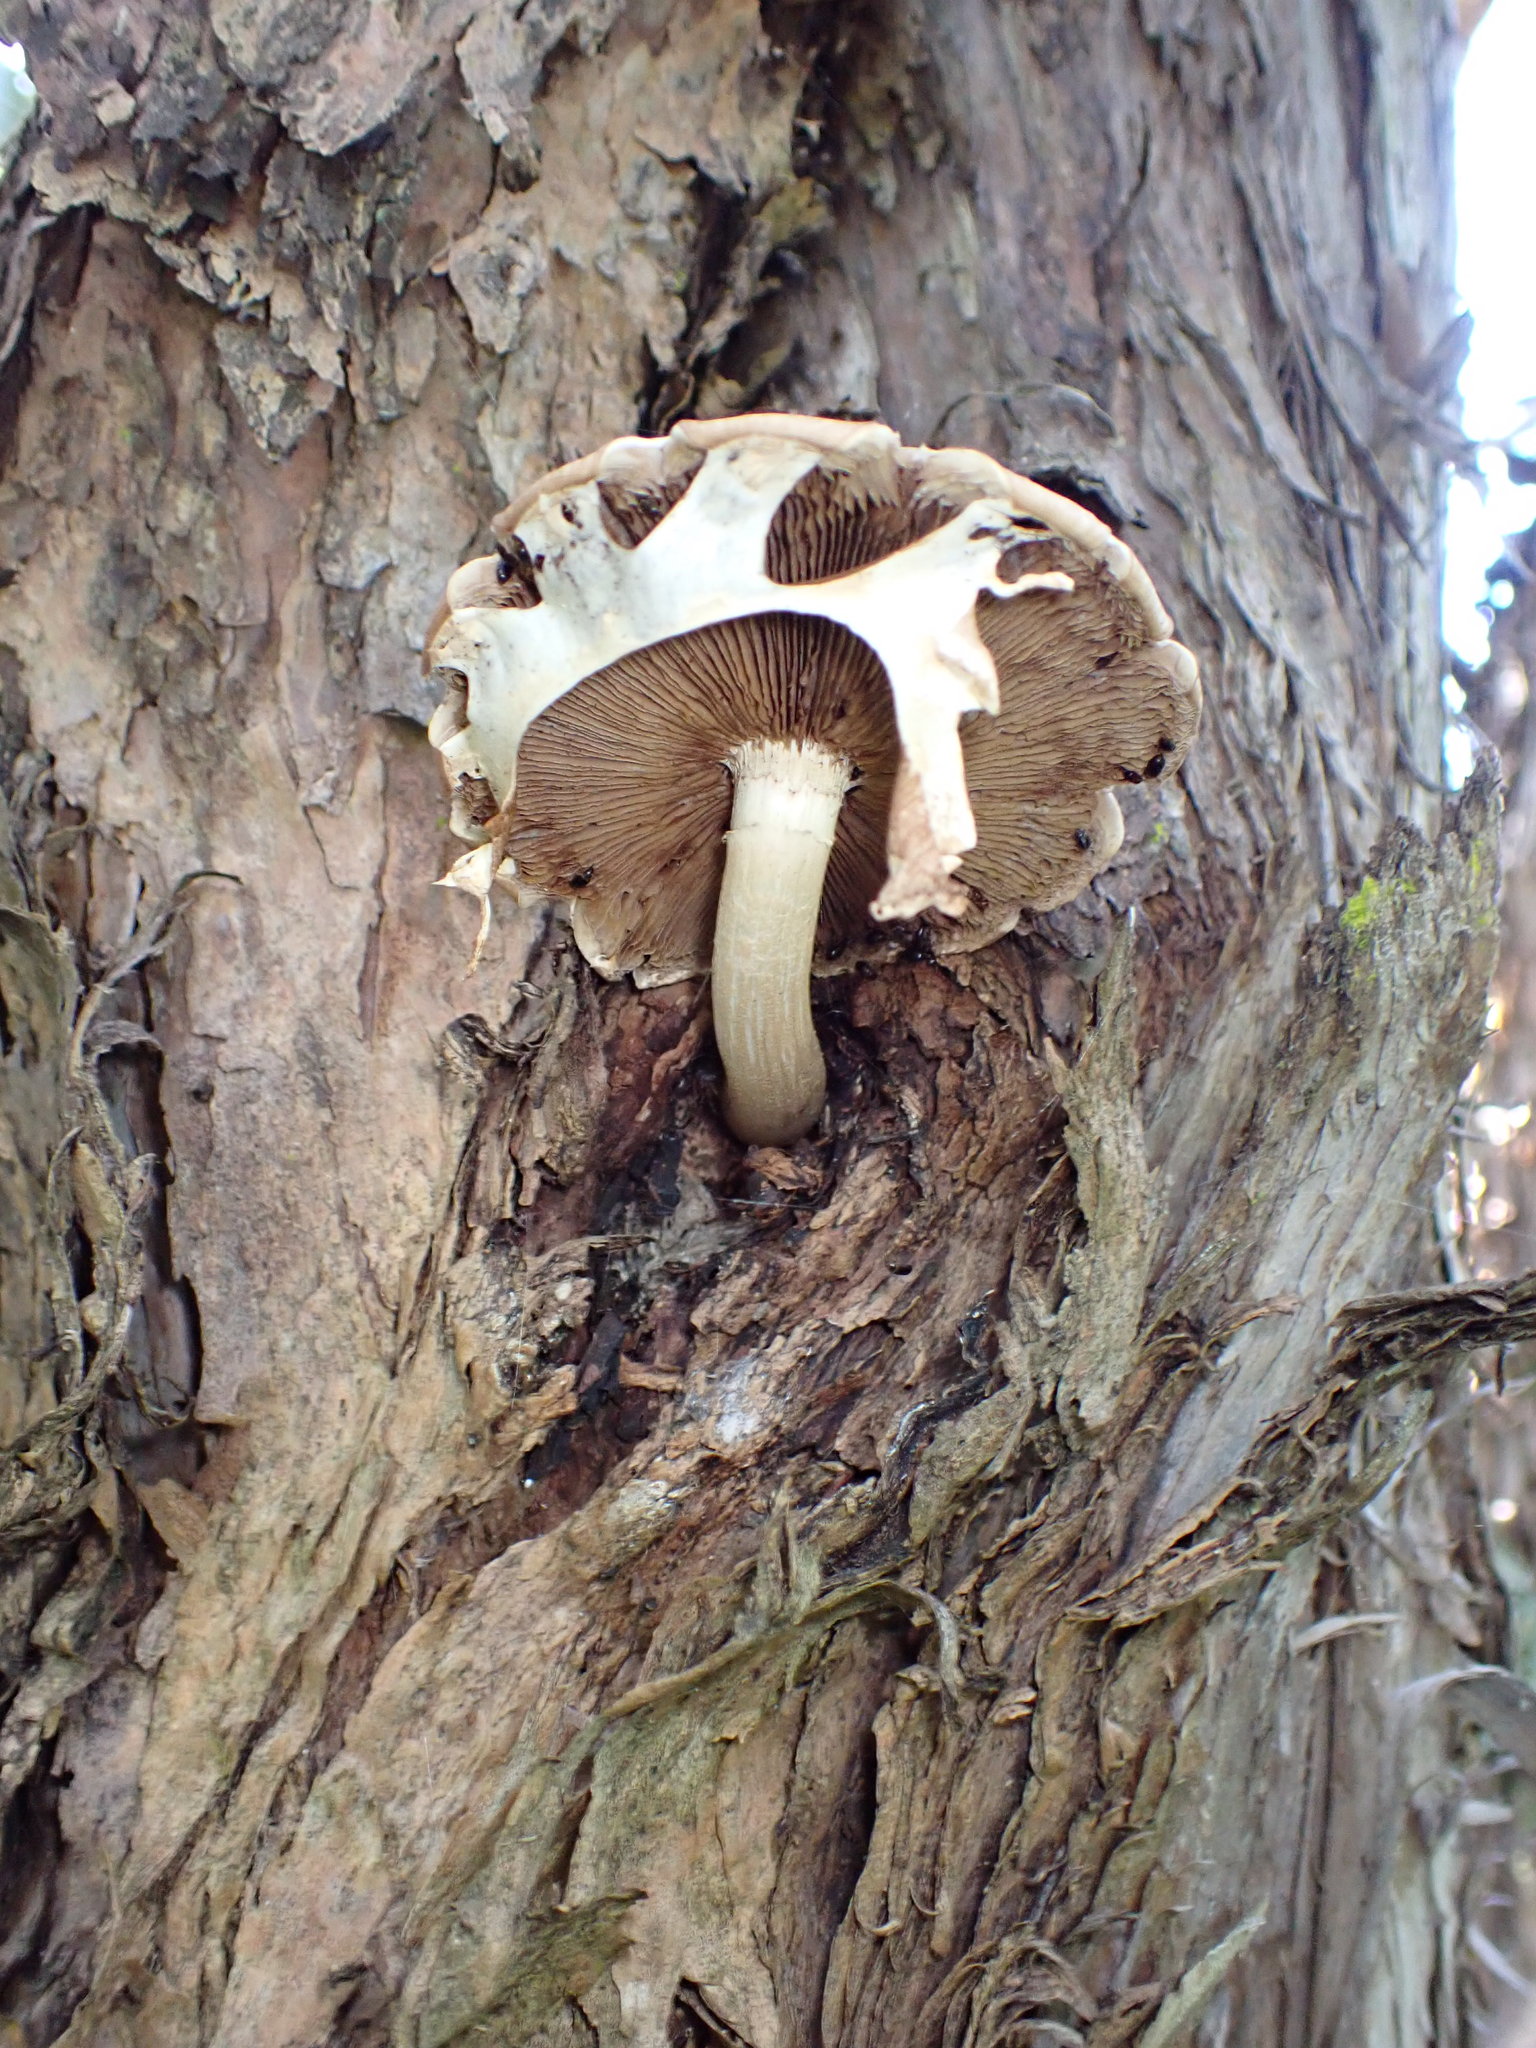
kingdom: Fungi
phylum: Basidiomycota
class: Agaricomycetes
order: Agaricales
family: Tubariaceae
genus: Cyclocybe
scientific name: Cyclocybe parasitica
